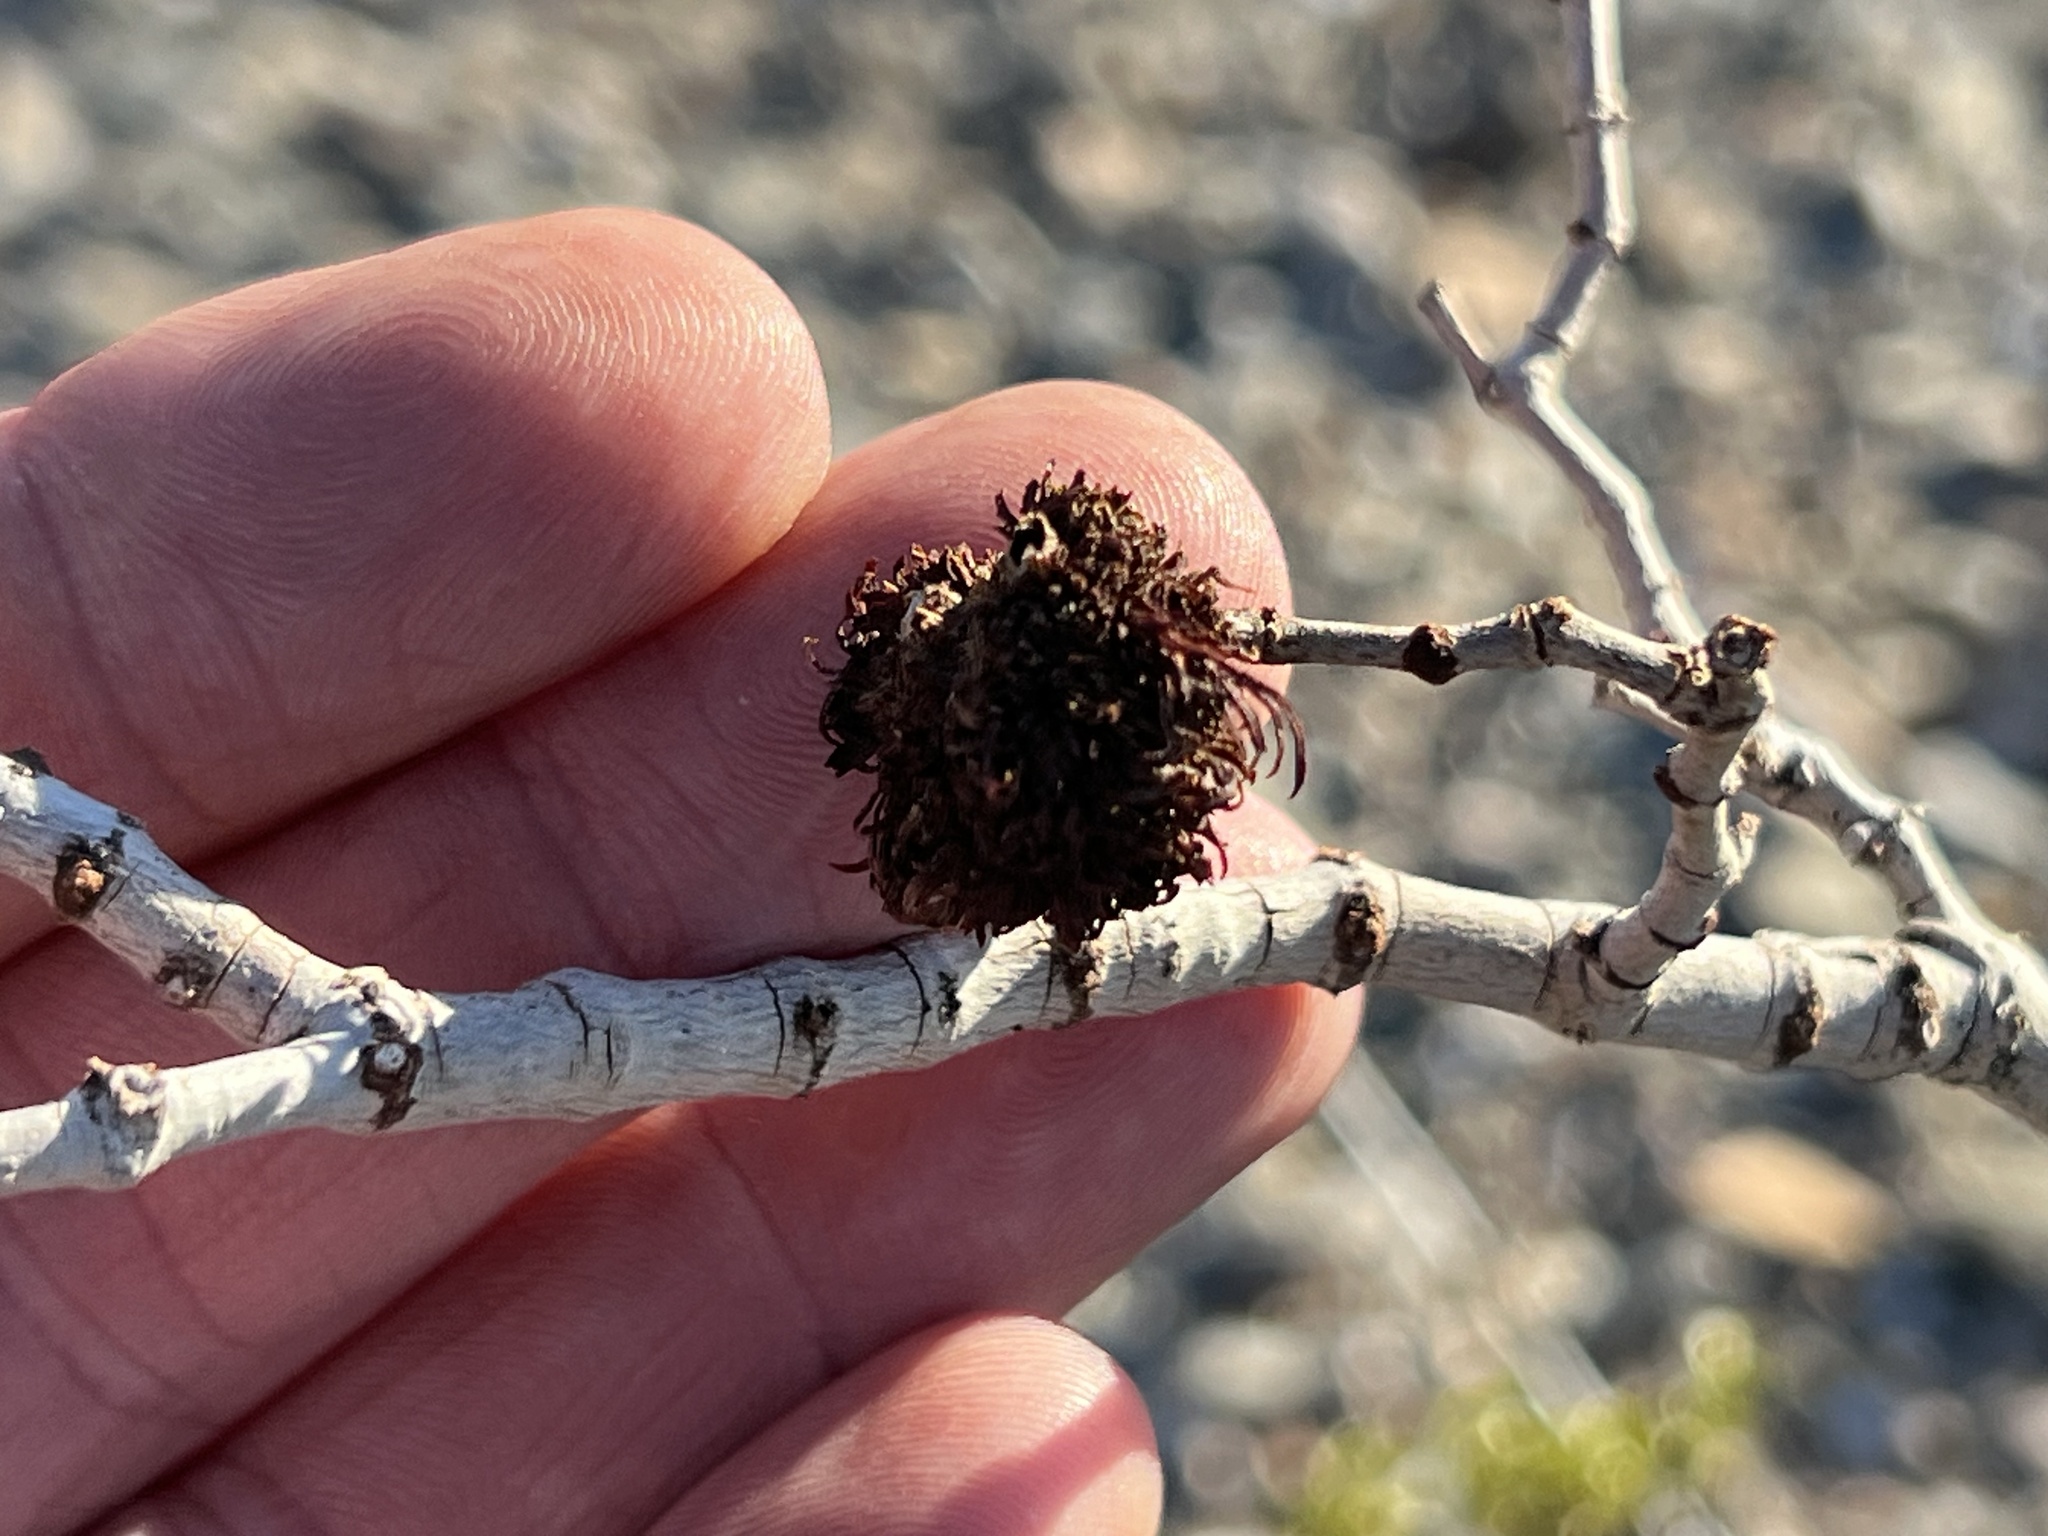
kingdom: Animalia
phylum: Arthropoda
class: Insecta
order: Diptera
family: Cecidomyiidae
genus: Asphondylia
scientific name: Asphondylia auripila
